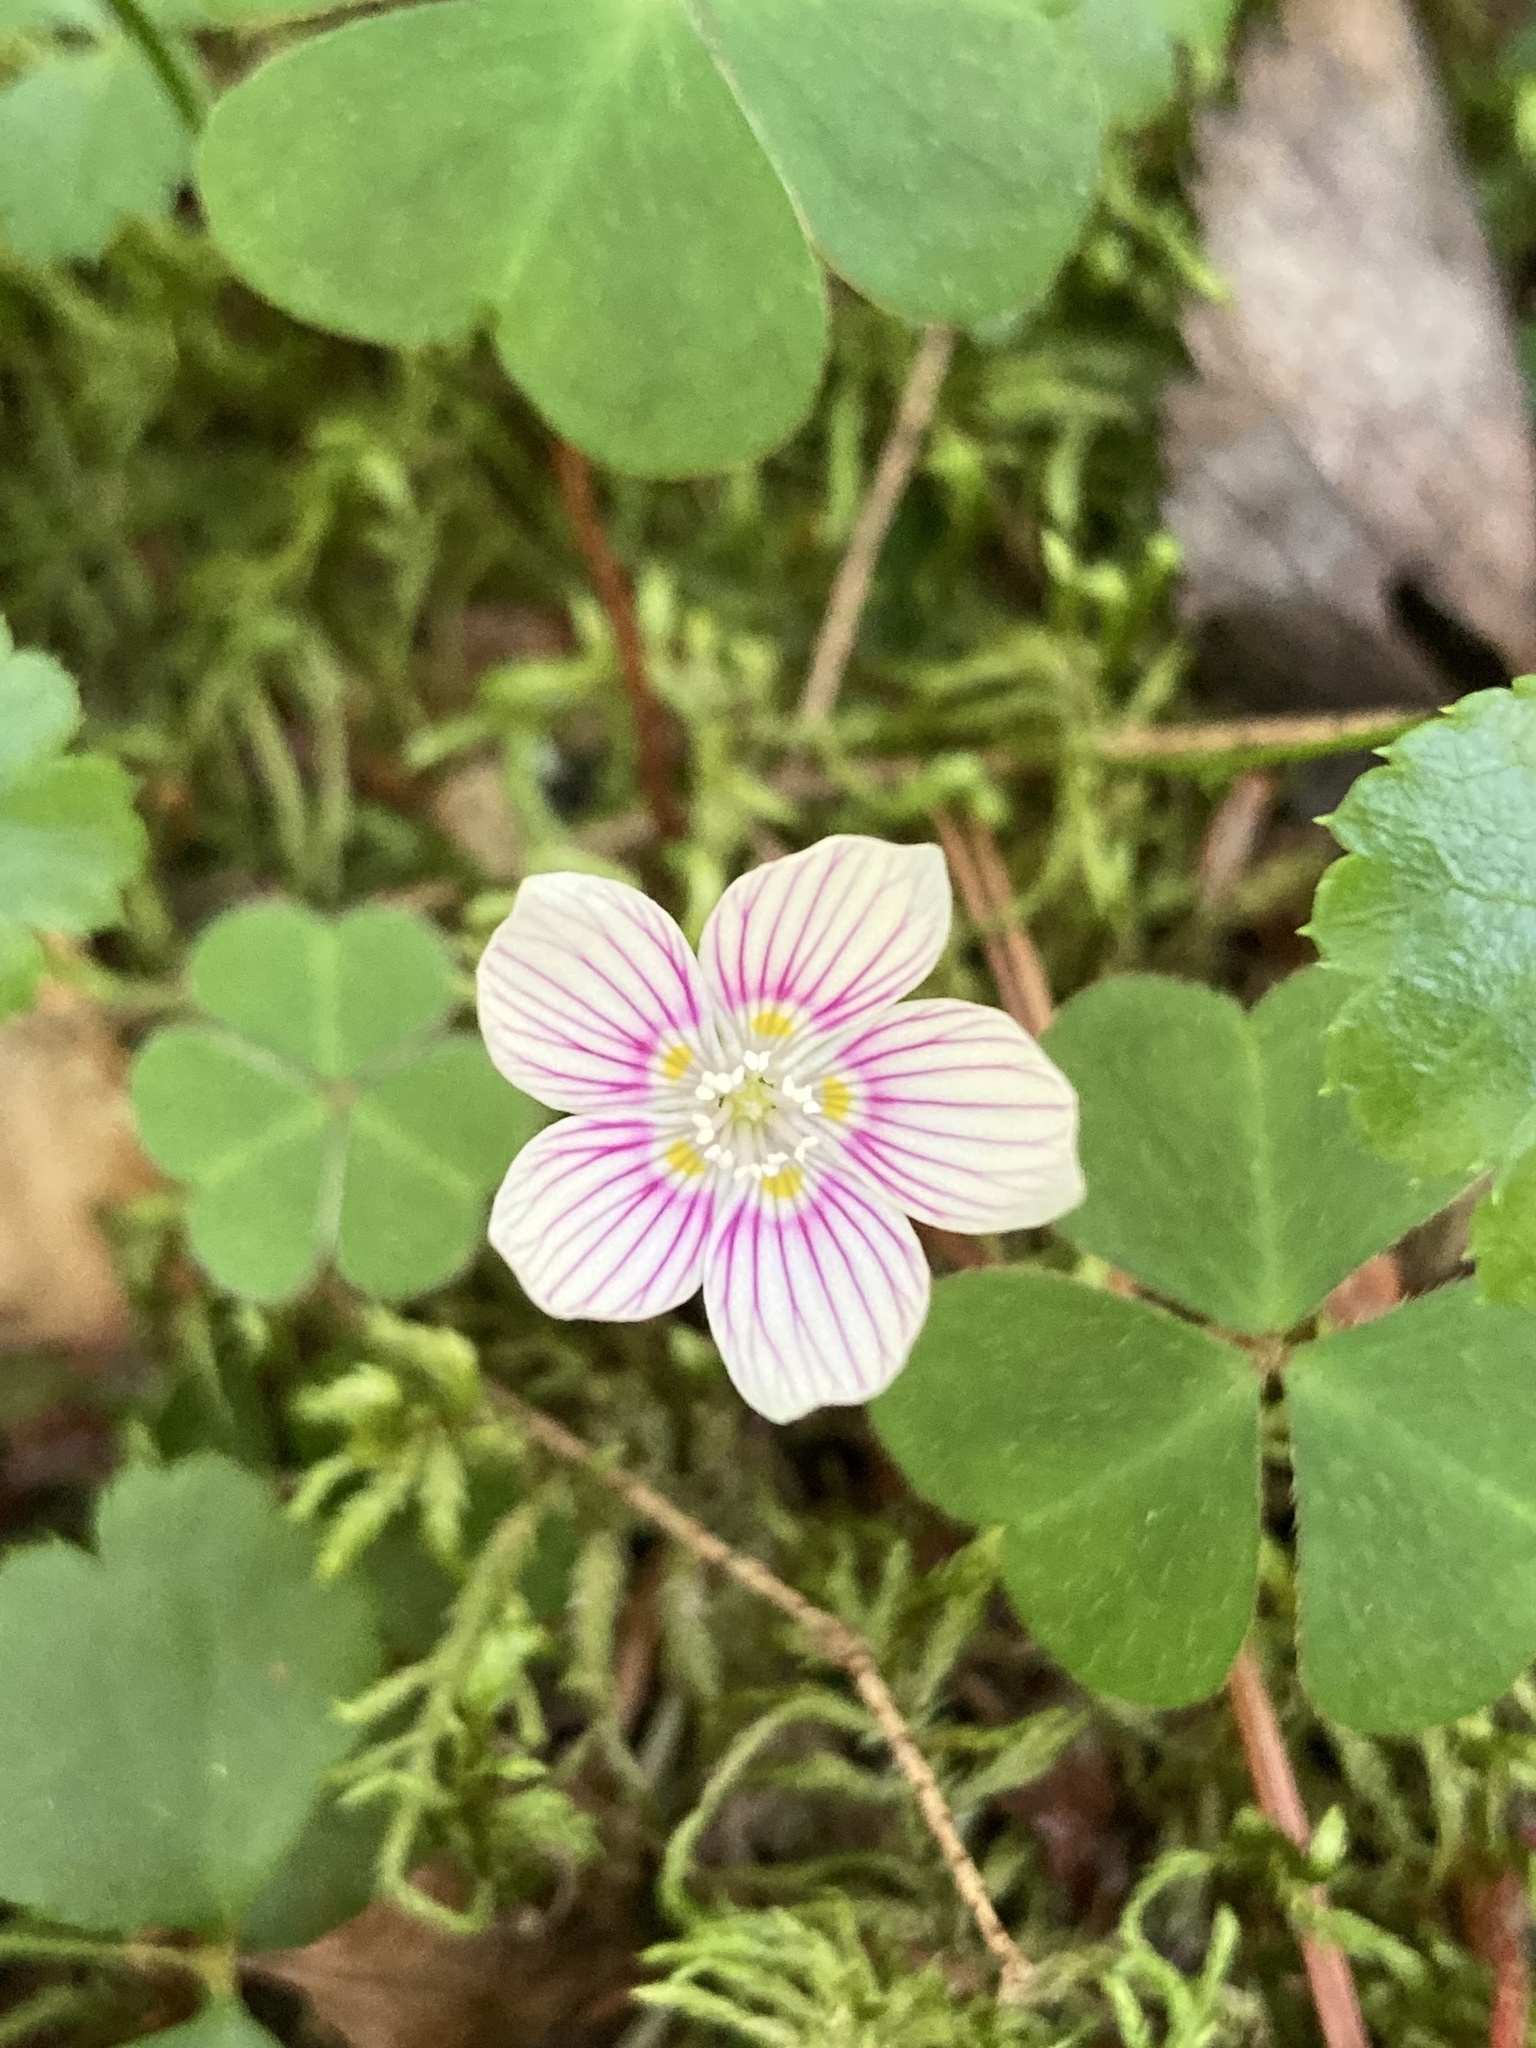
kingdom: Plantae
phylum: Tracheophyta
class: Magnoliopsida
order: Oxalidales
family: Oxalidaceae
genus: Oxalis
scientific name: Oxalis montana
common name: American wood-sorrel
